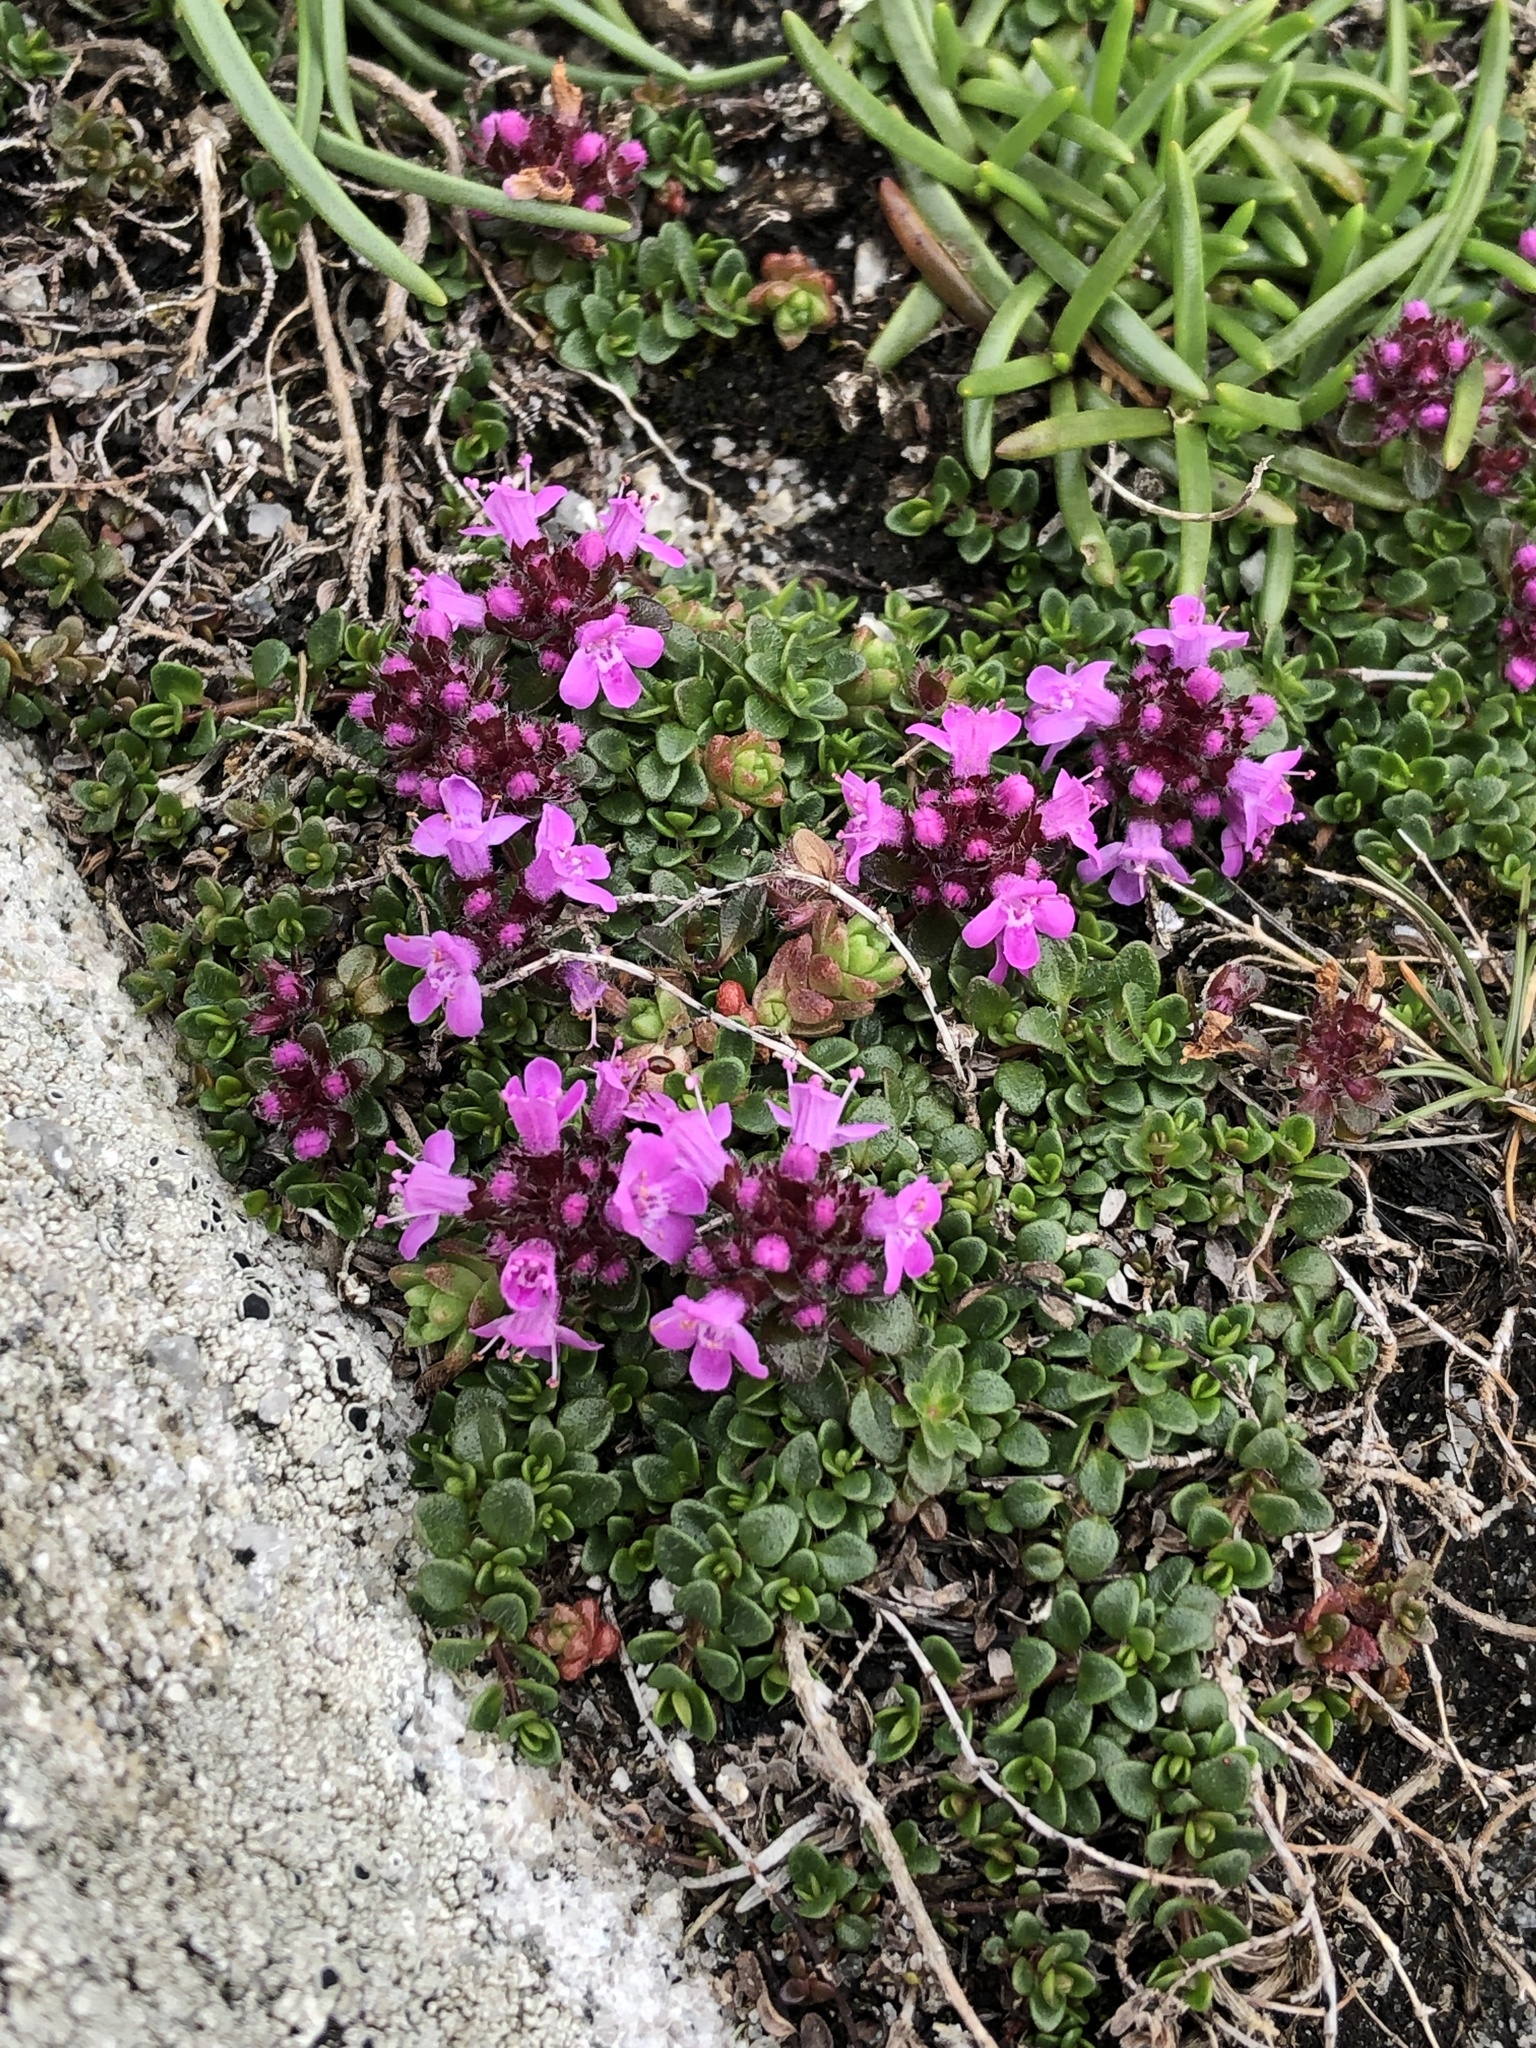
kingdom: Plantae
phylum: Tracheophyta
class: Magnoliopsida
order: Lamiales
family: Lamiaceae
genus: Thymus
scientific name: Thymus praecox
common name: Wild thyme
